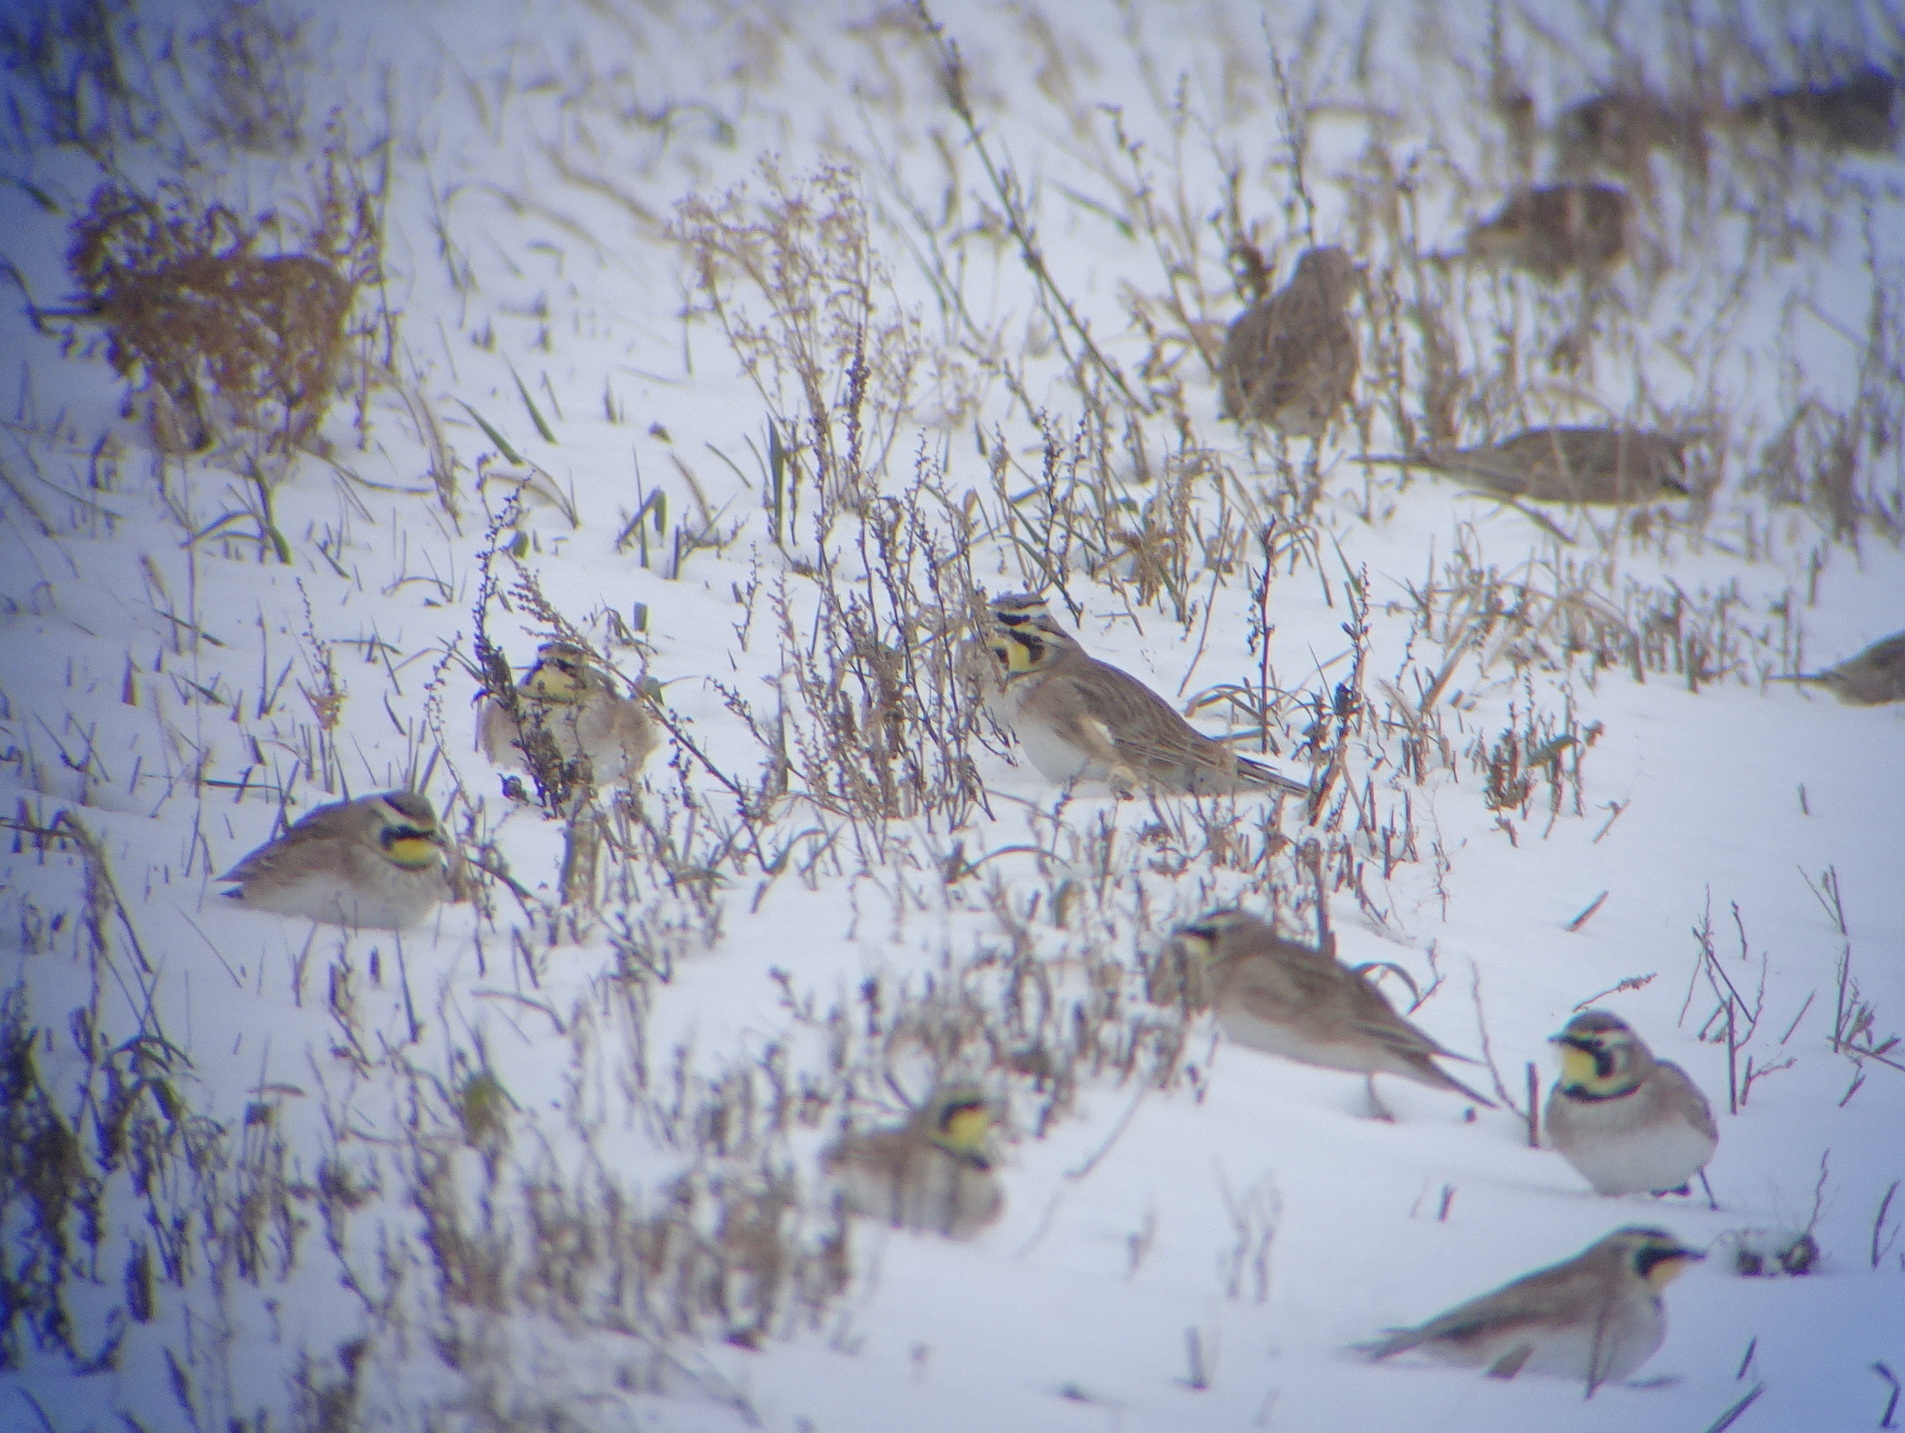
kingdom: Animalia
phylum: Chordata
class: Aves
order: Passeriformes
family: Alaudidae
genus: Eremophila
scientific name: Eremophila alpestris
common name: Horned lark
